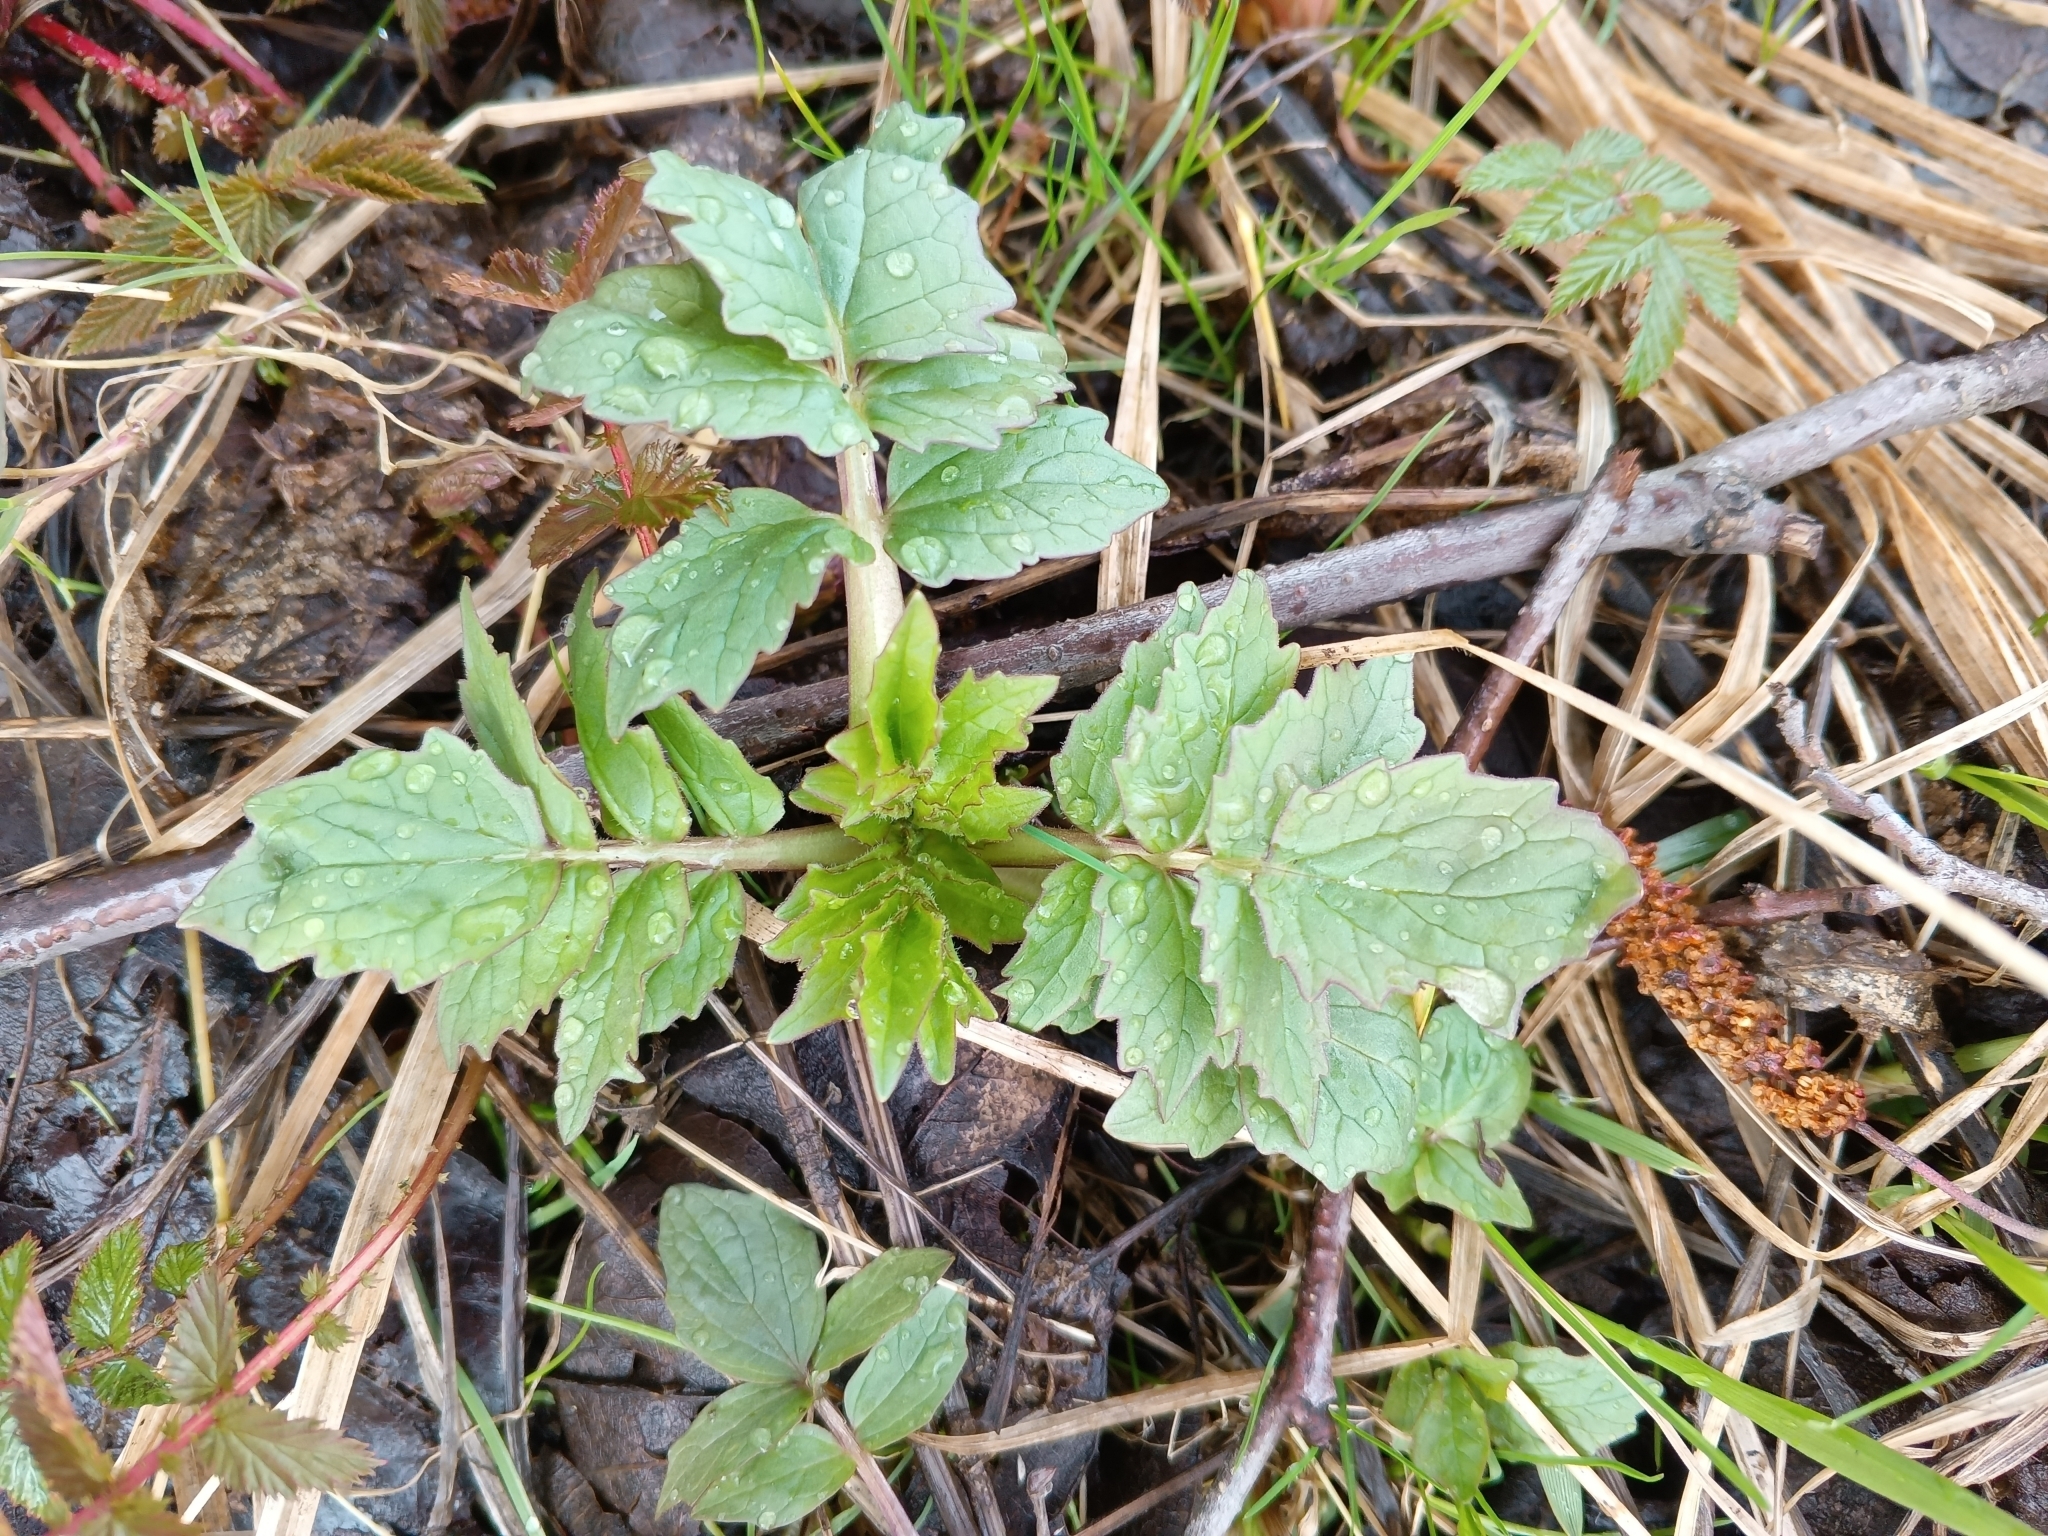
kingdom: Plantae
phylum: Tracheophyta
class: Magnoliopsida
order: Dipsacales
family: Caprifoliaceae
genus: Valeriana
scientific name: Valeriana officinalis
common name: Common valerian
